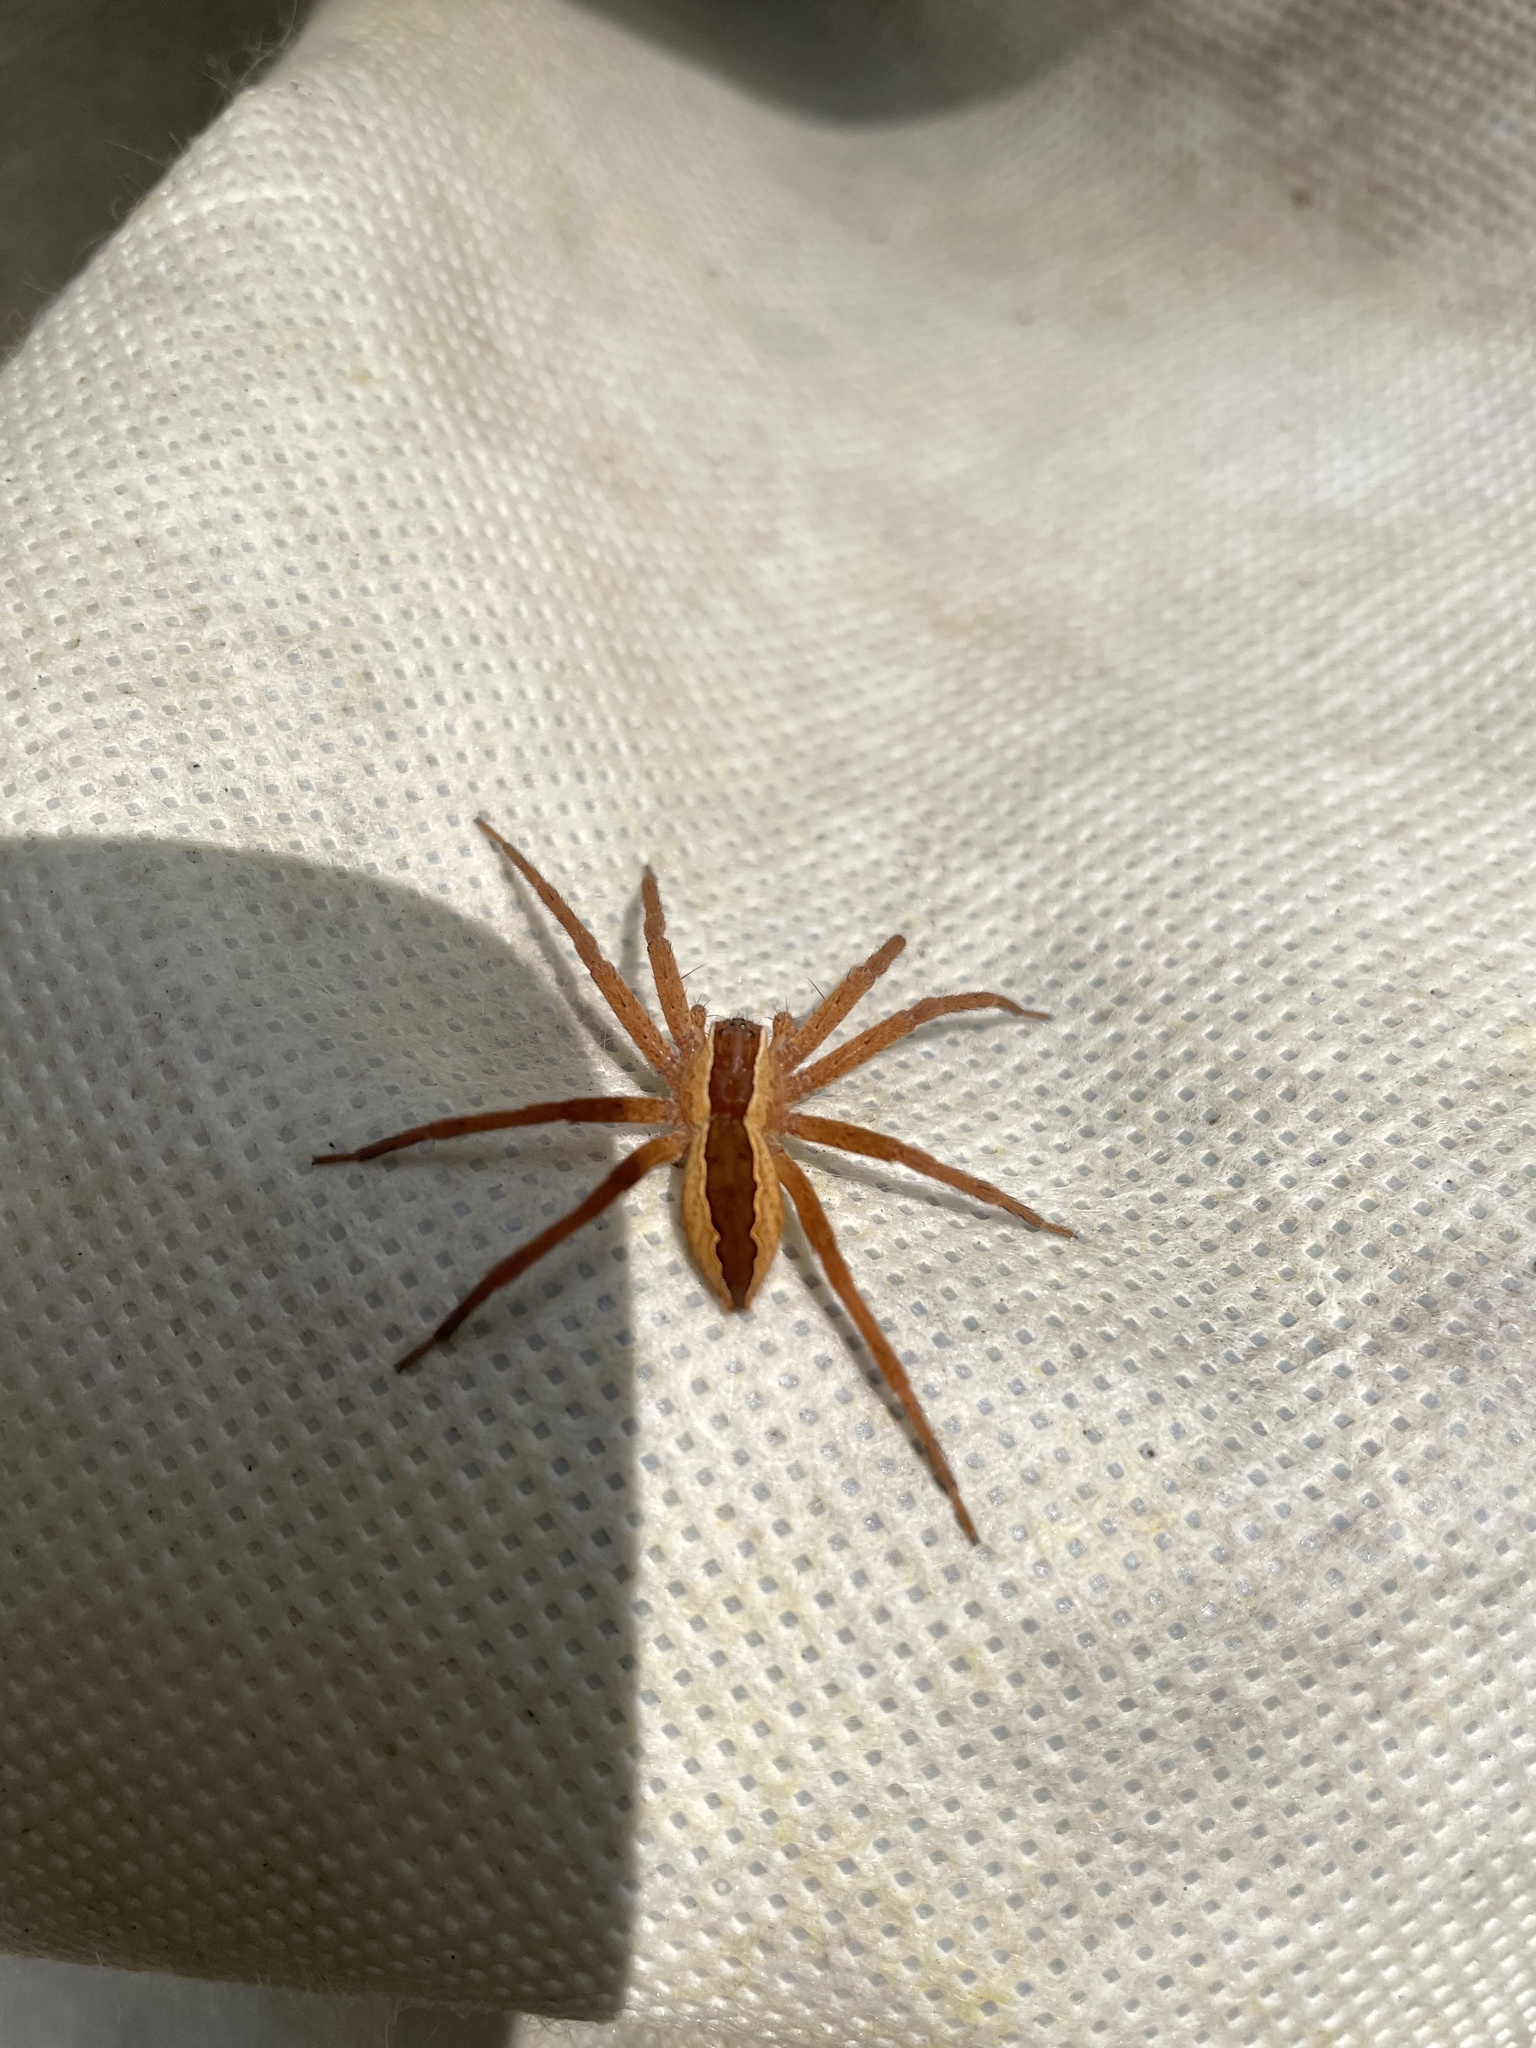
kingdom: Animalia
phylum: Arthropoda
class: Arachnida
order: Araneae
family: Pisauridae
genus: Pisaurina
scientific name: Pisaurina mira
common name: American nursery web spider
